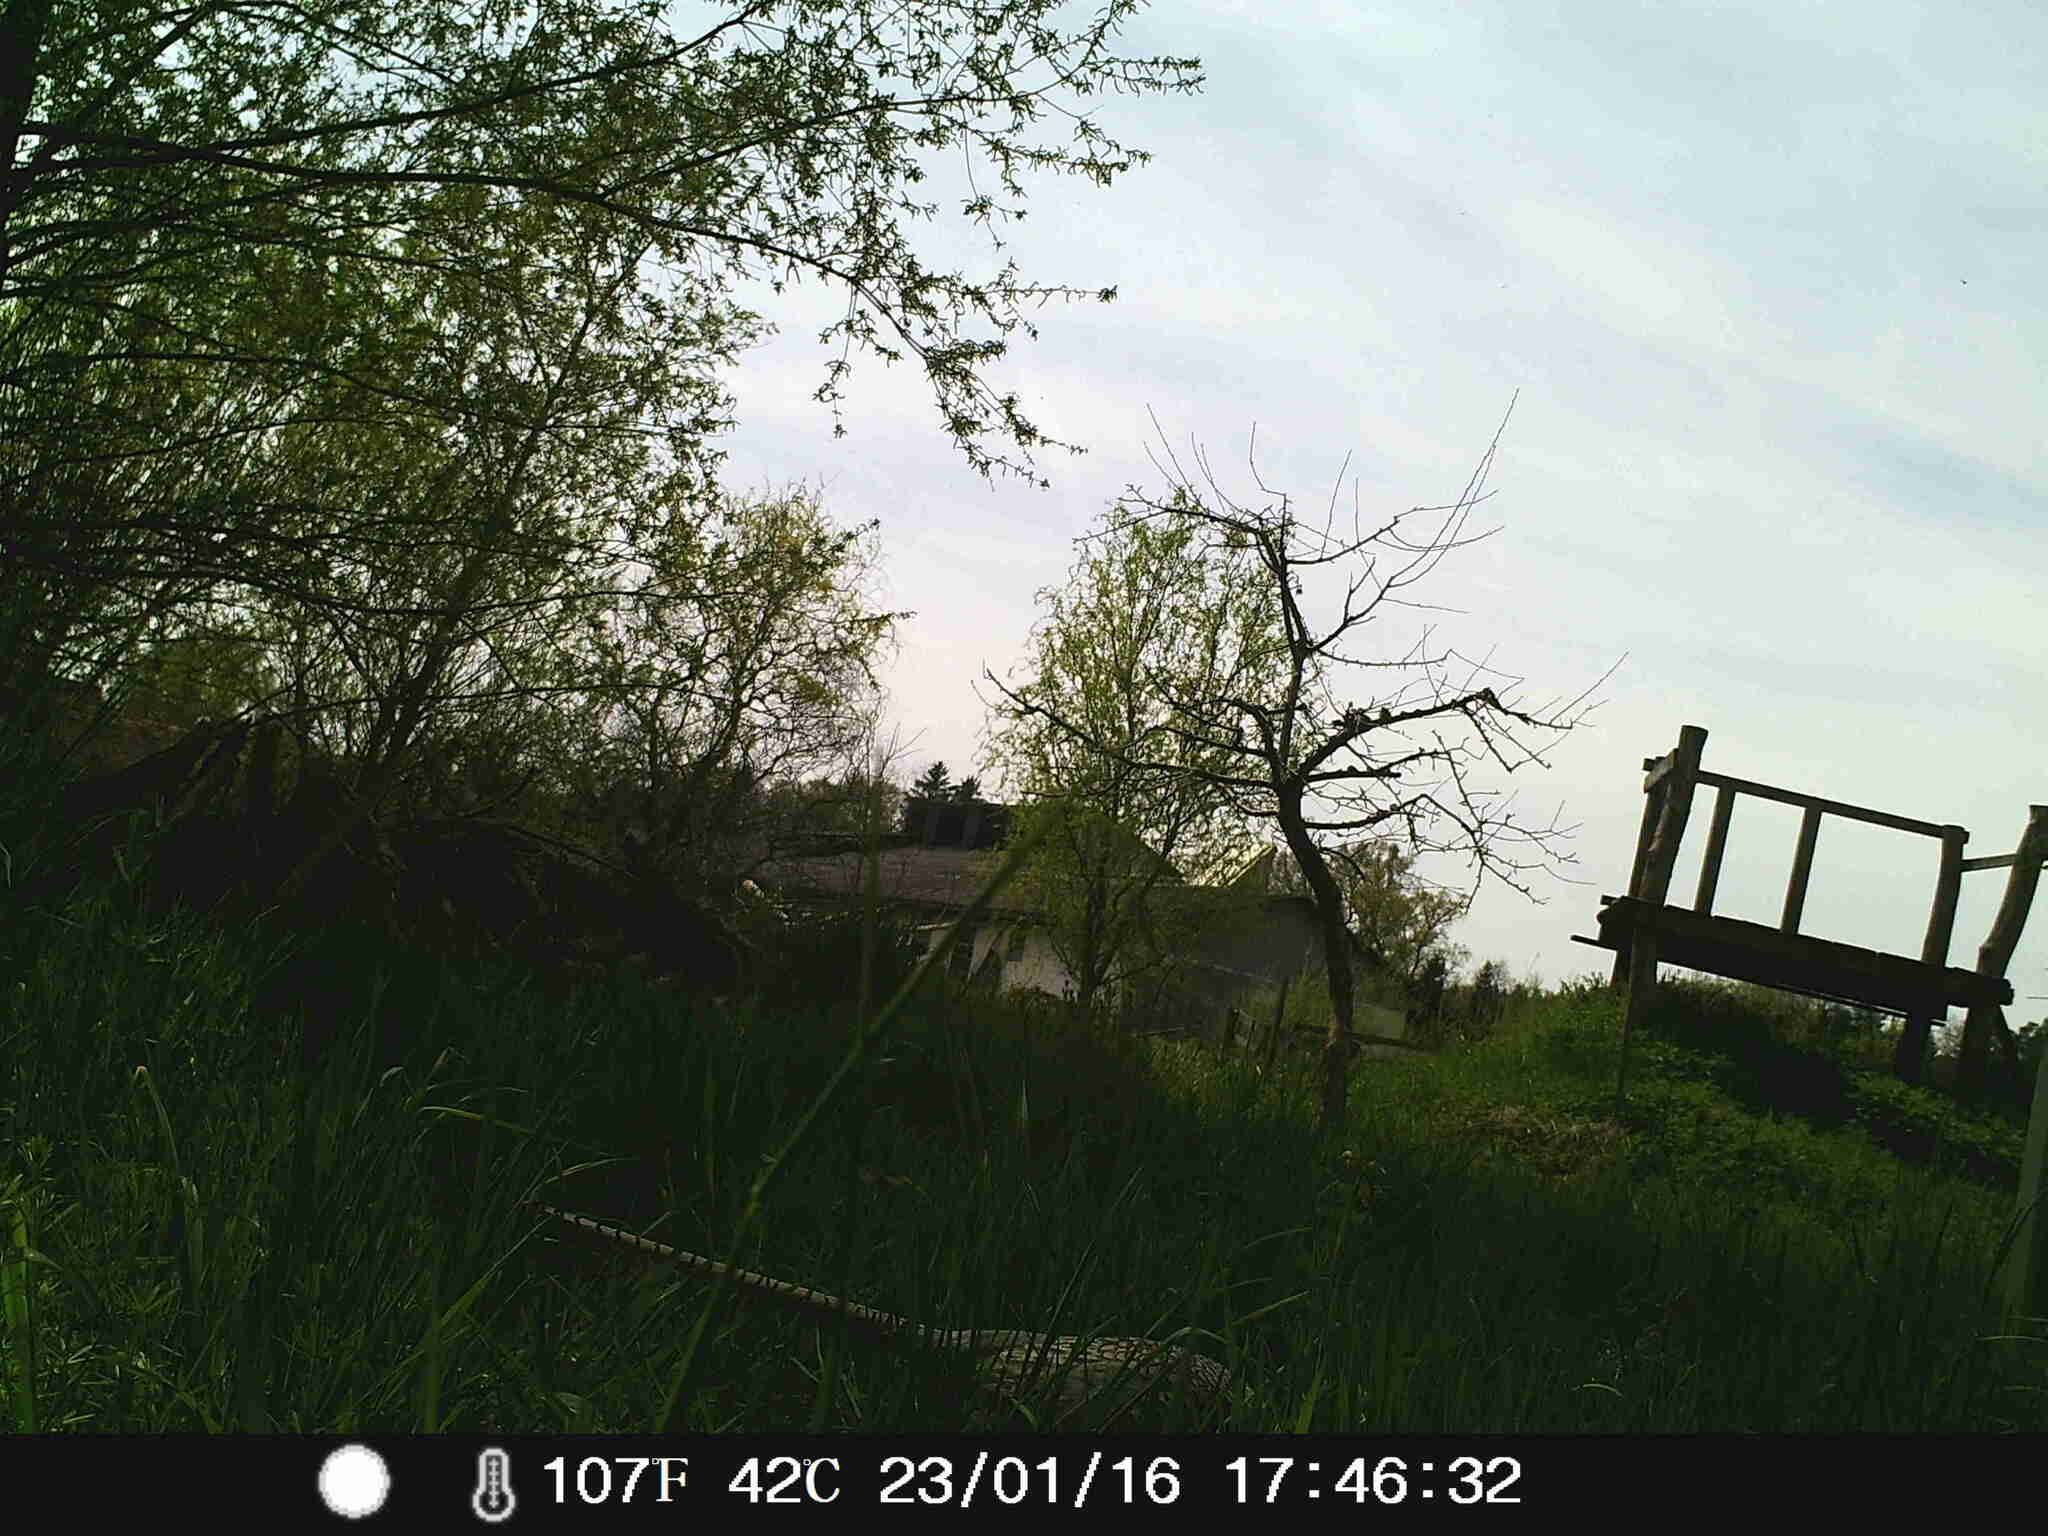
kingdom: Animalia
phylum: Chordata
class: Aves
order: Galliformes
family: Phasianidae
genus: Phasianus
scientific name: Phasianus colchicus
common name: Common pheasant
